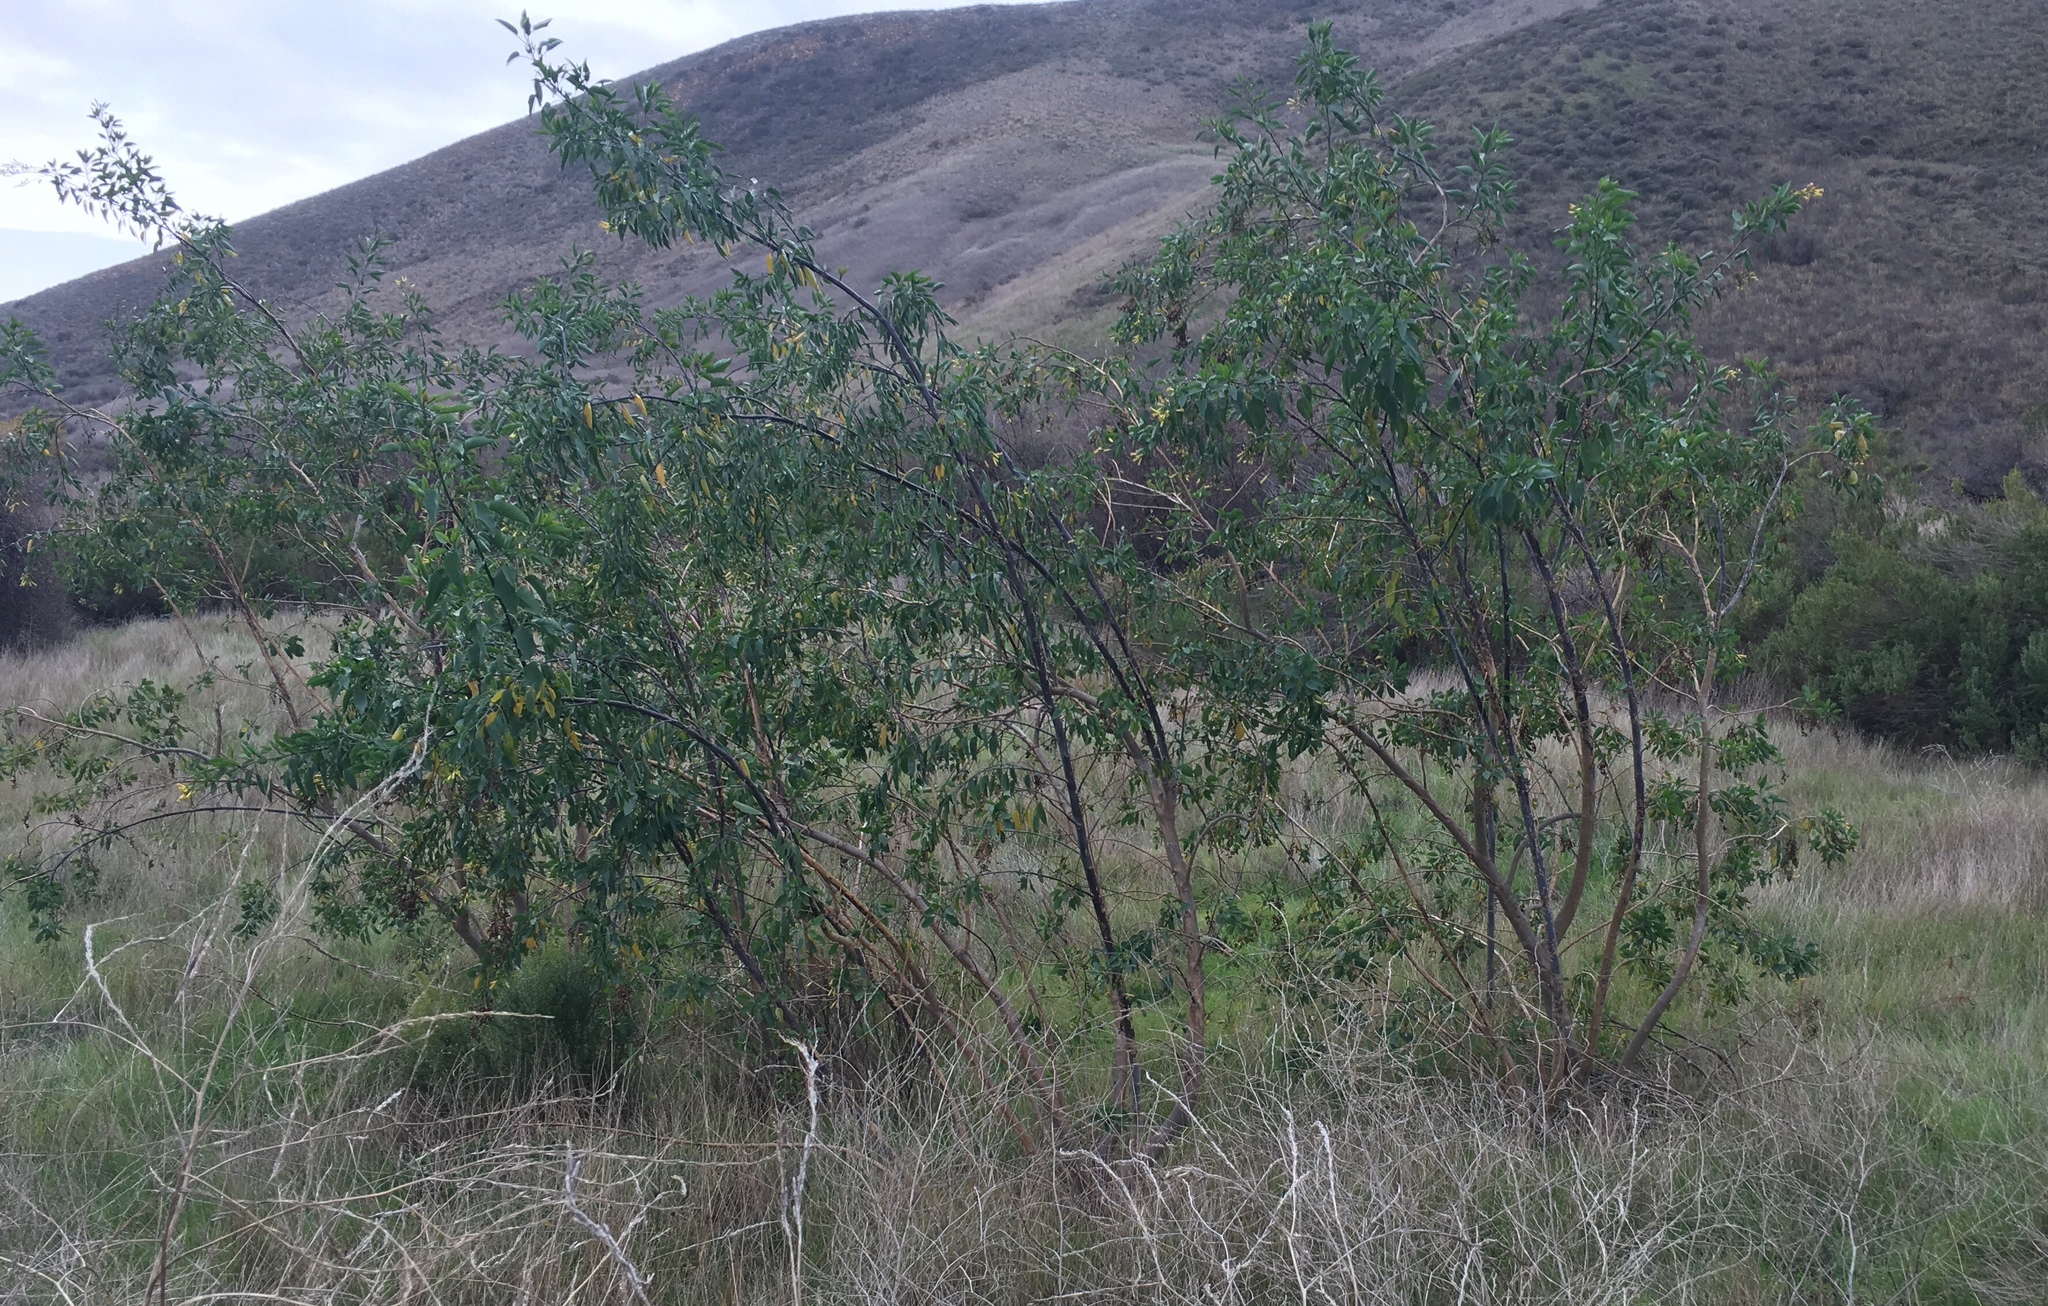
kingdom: Plantae
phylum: Tracheophyta
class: Magnoliopsida
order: Solanales
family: Solanaceae
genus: Nicotiana
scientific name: Nicotiana glauca
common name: Tree tobacco
